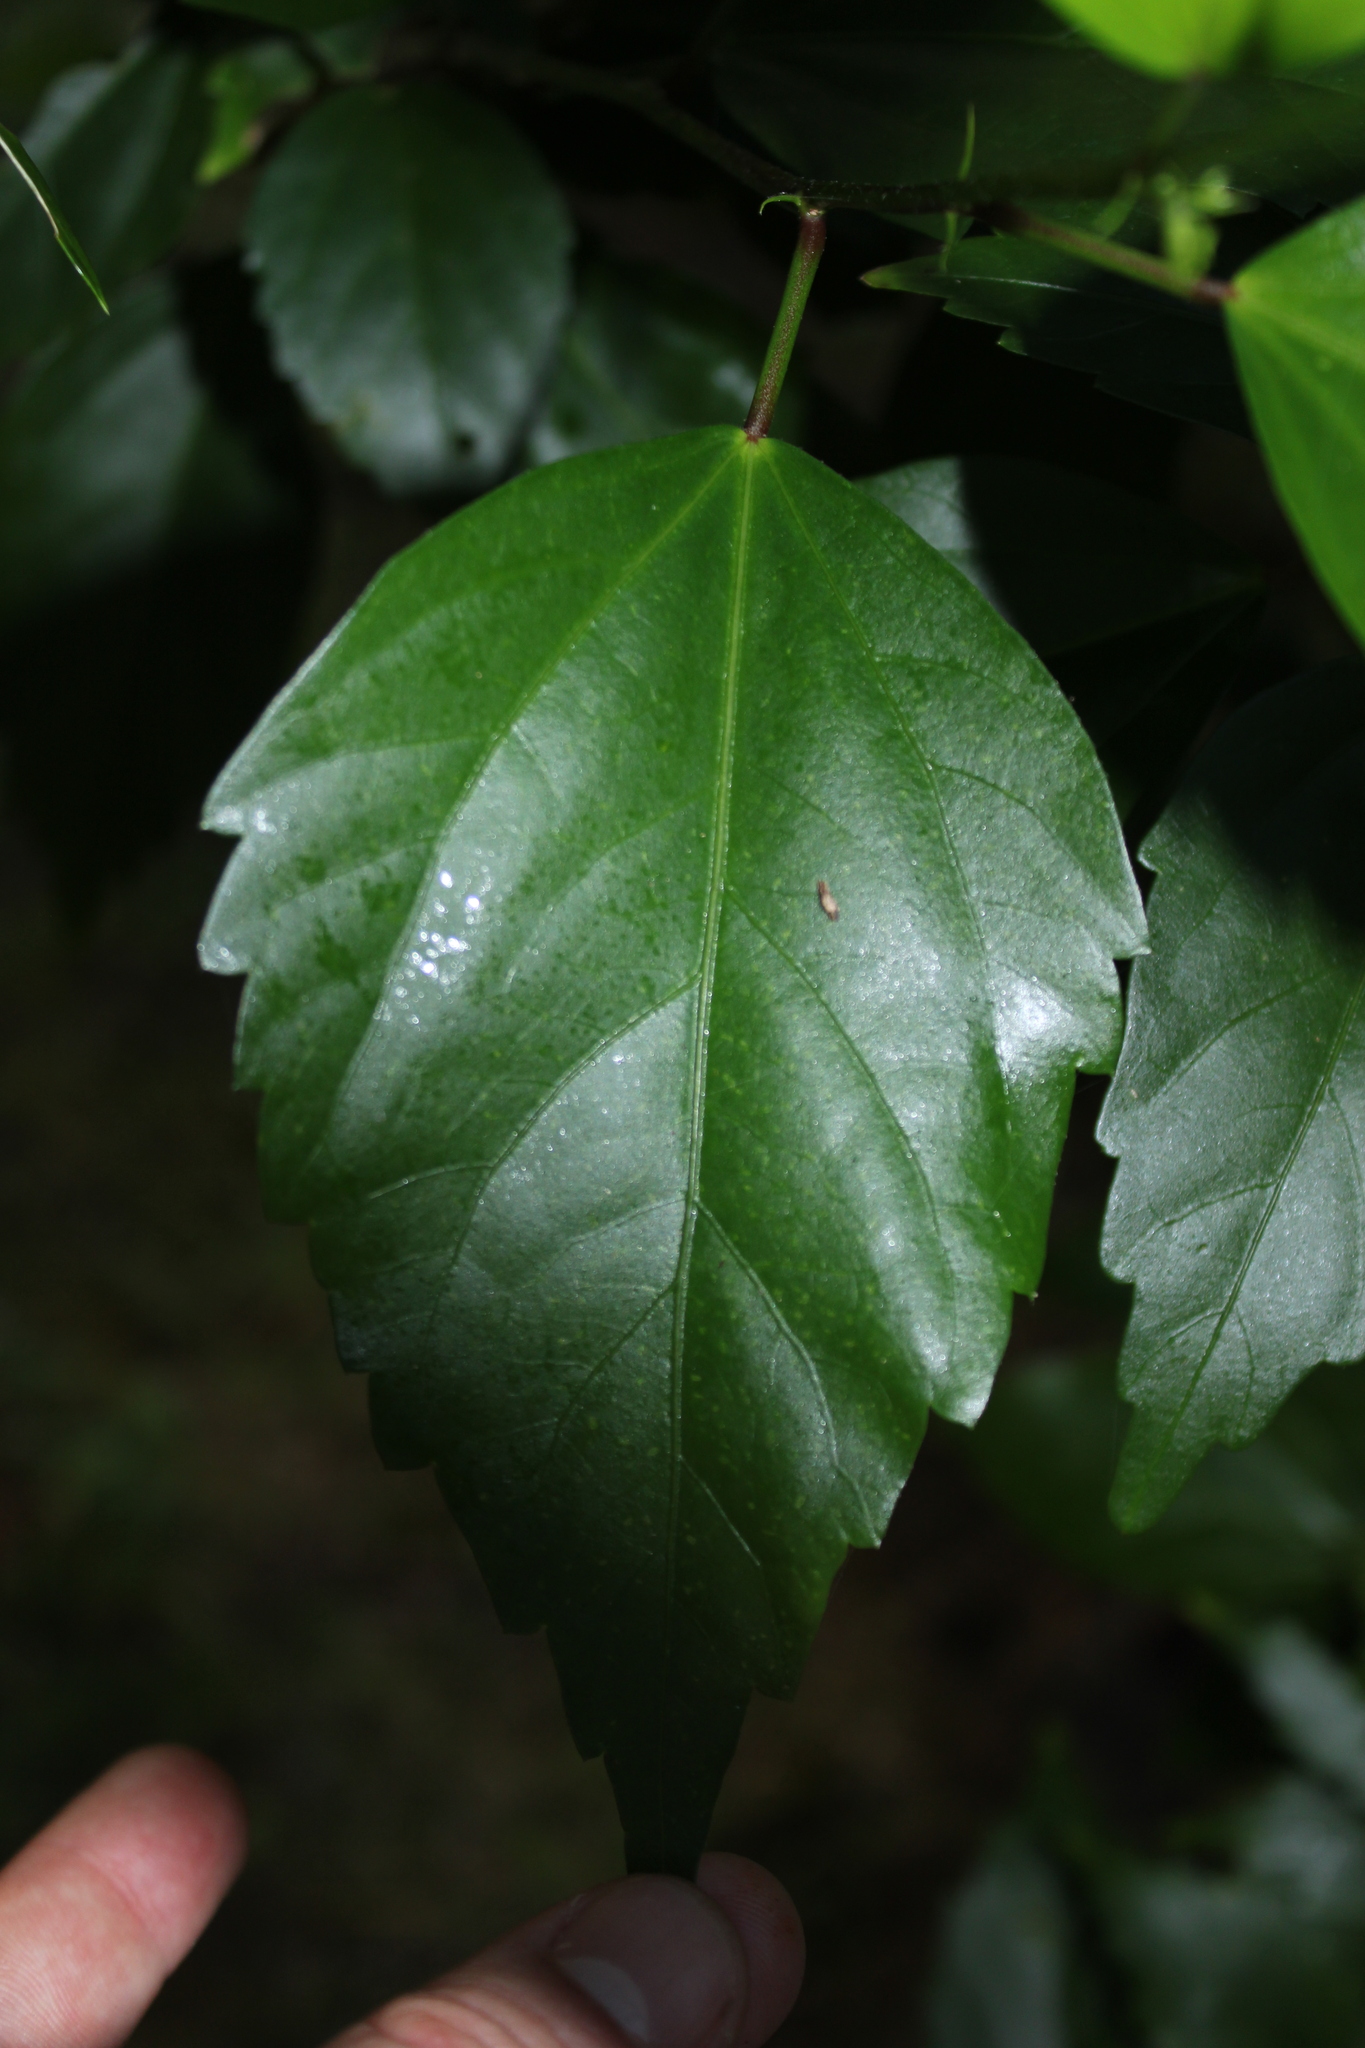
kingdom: Plantae
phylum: Tracheophyta
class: Magnoliopsida
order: Malvales
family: Malvaceae
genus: Hibiscus
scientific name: Hibiscus archeri
